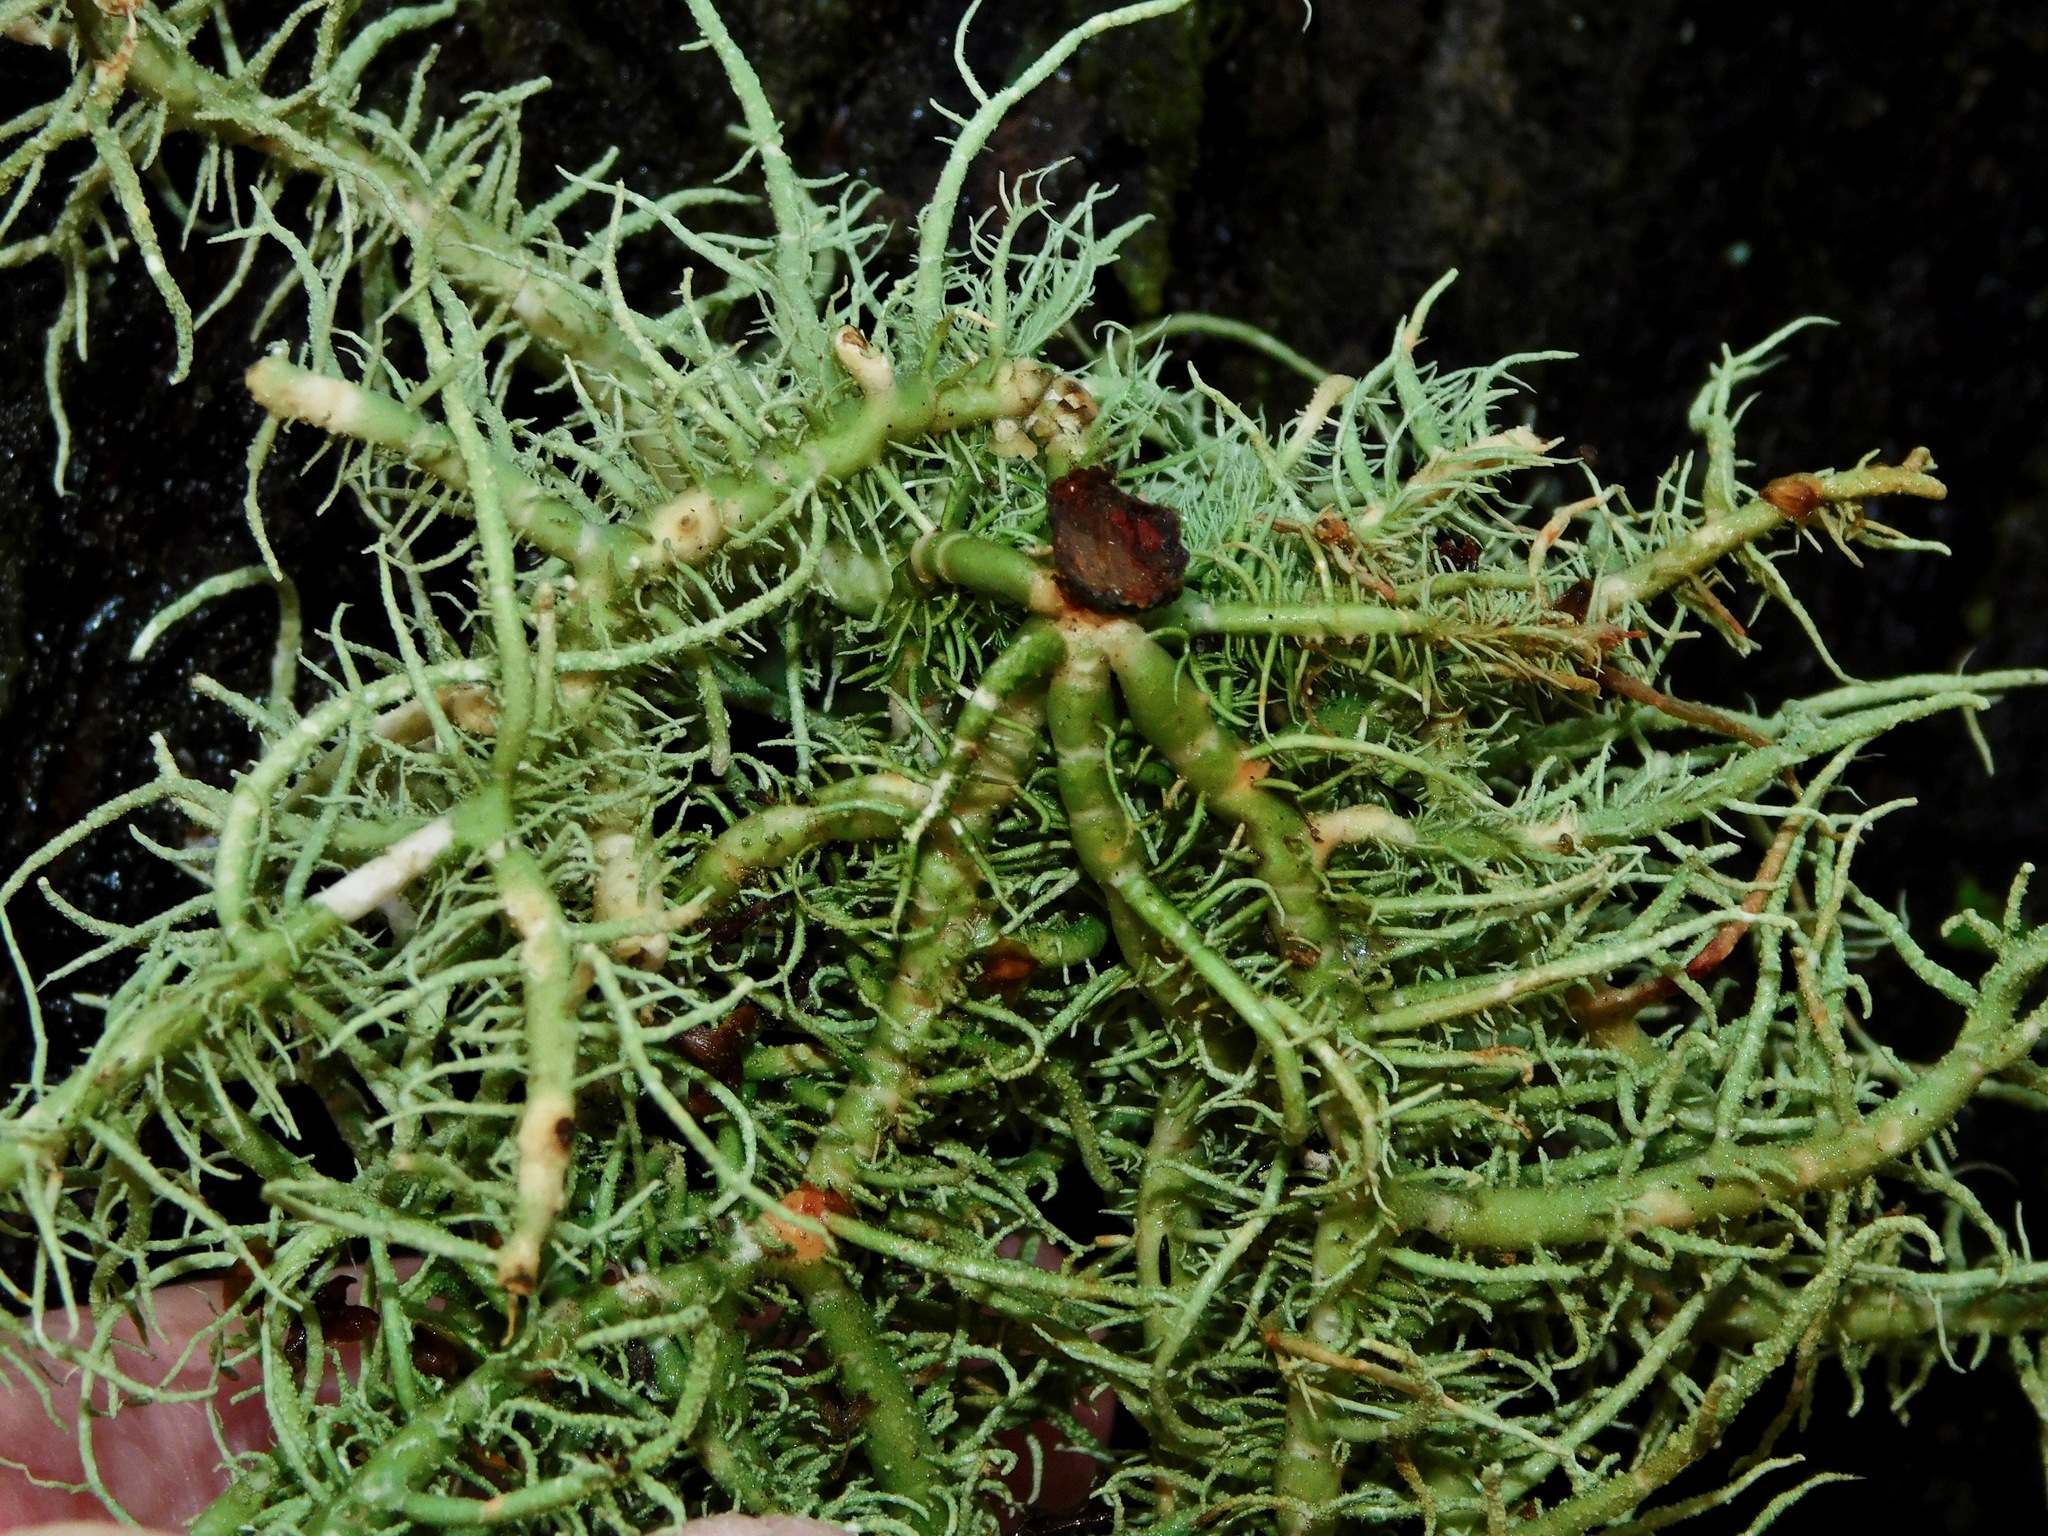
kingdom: Fungi
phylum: Ascomycota
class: Lecanoromycetes
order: Lecanorales
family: Parmeliaceae
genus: Usnea
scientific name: Usnea cornuta
